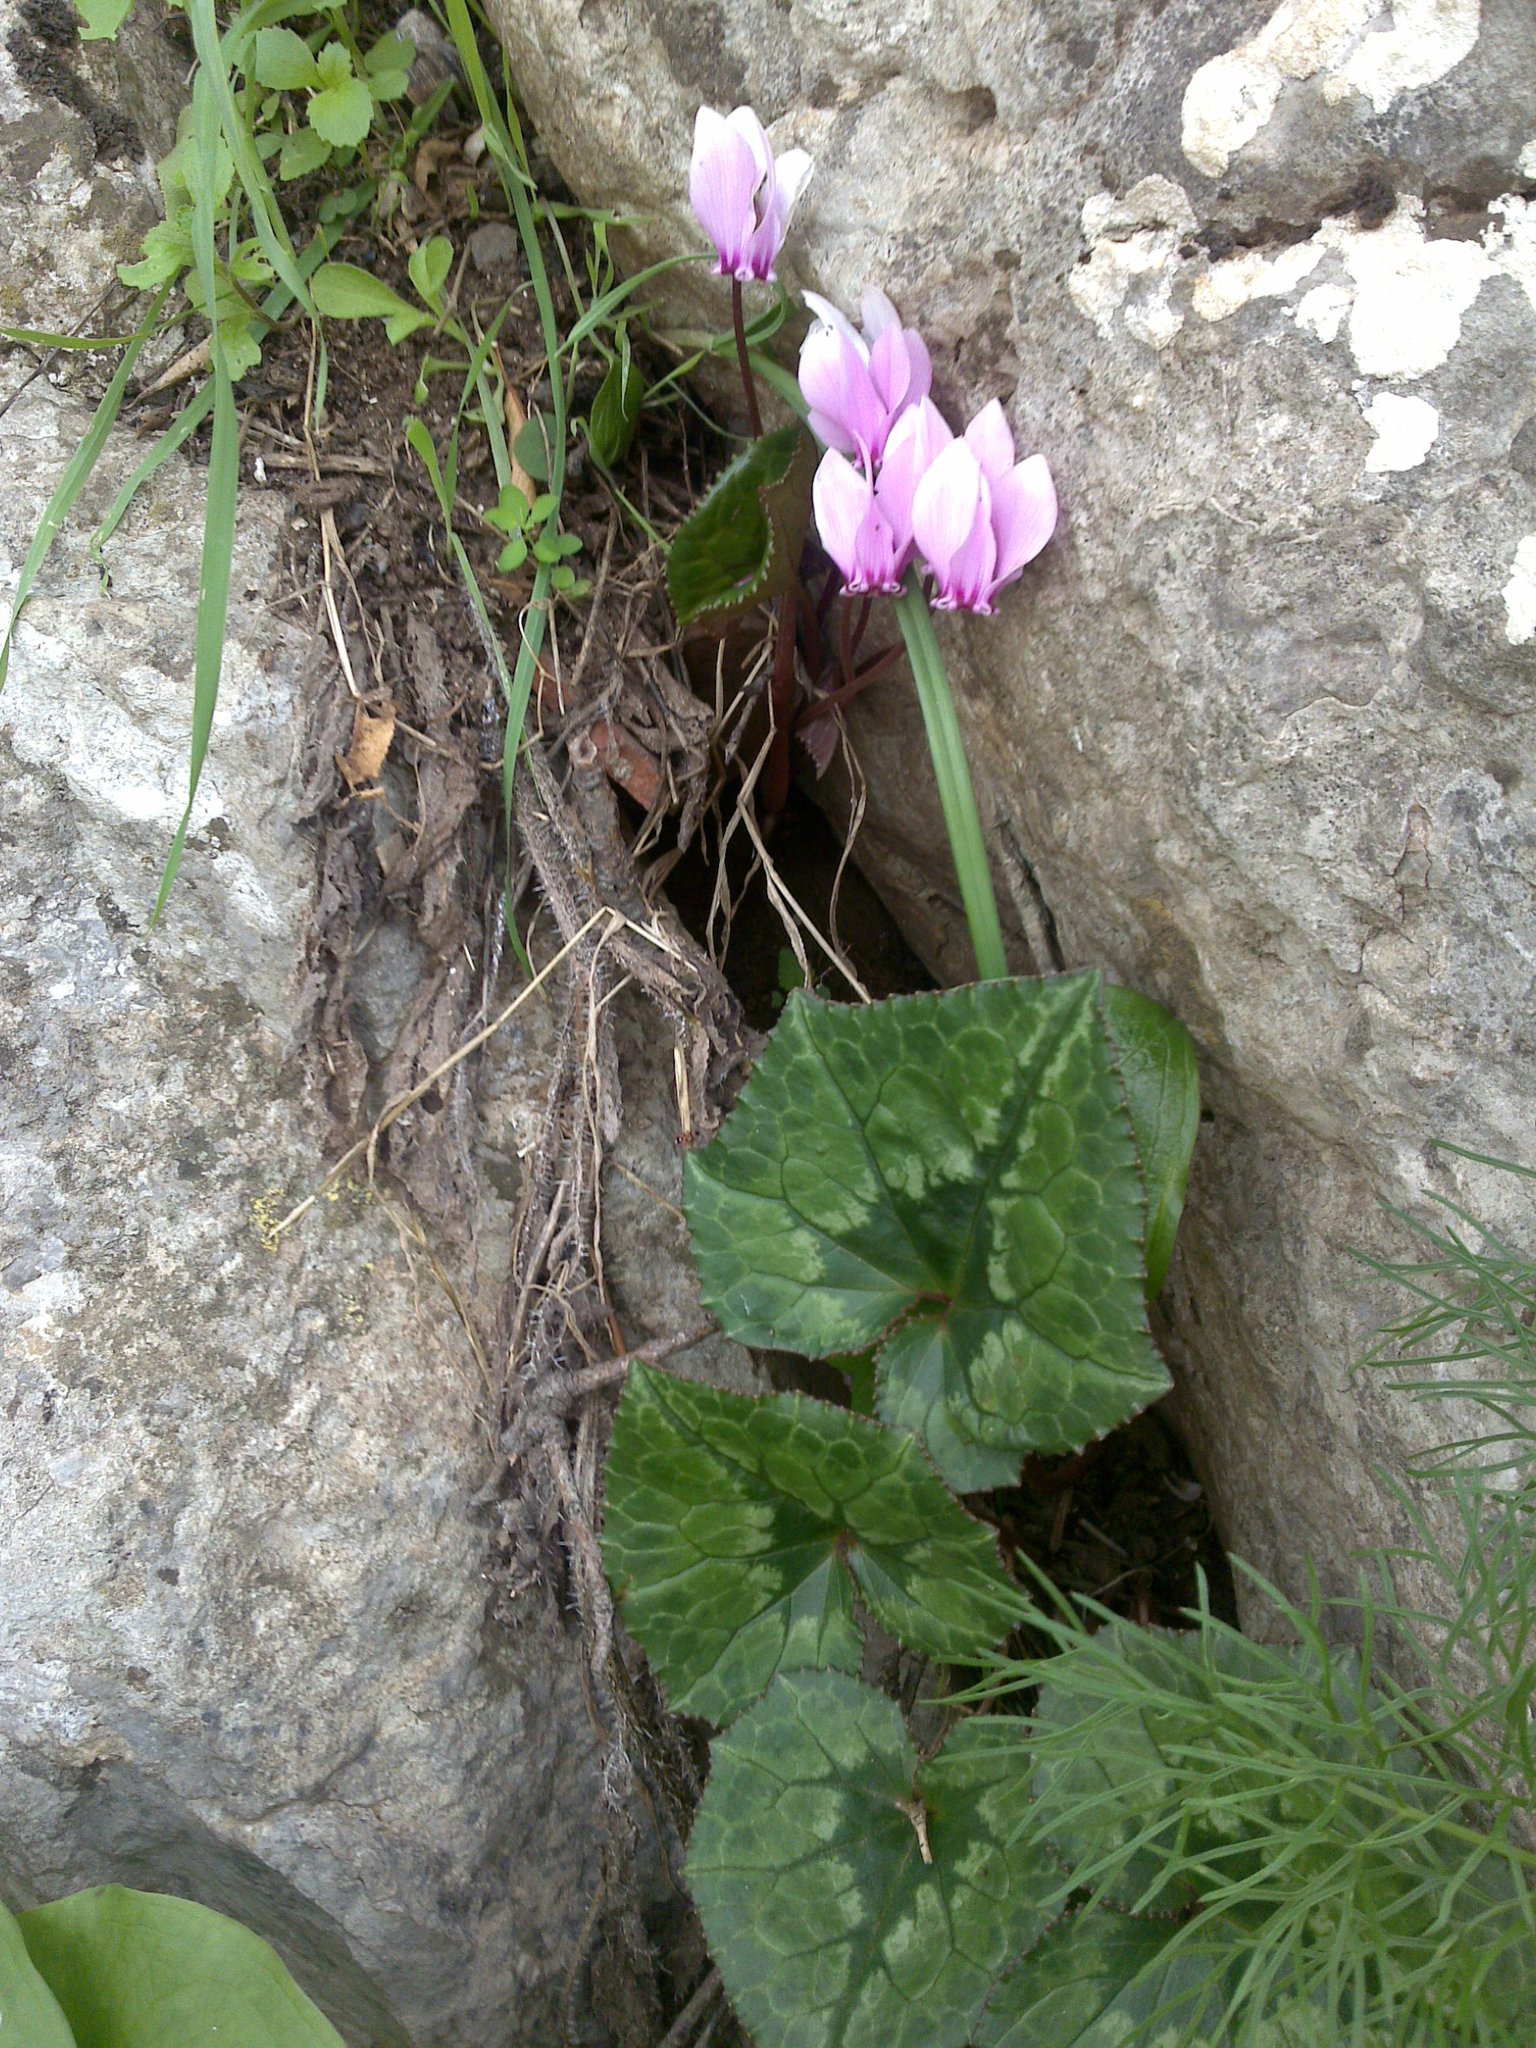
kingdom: Plantae
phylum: Tracheophyta
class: Magnoliopsida
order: Ericales
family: Primulaceae
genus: Cyclamen
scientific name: Cyclamen africanum
